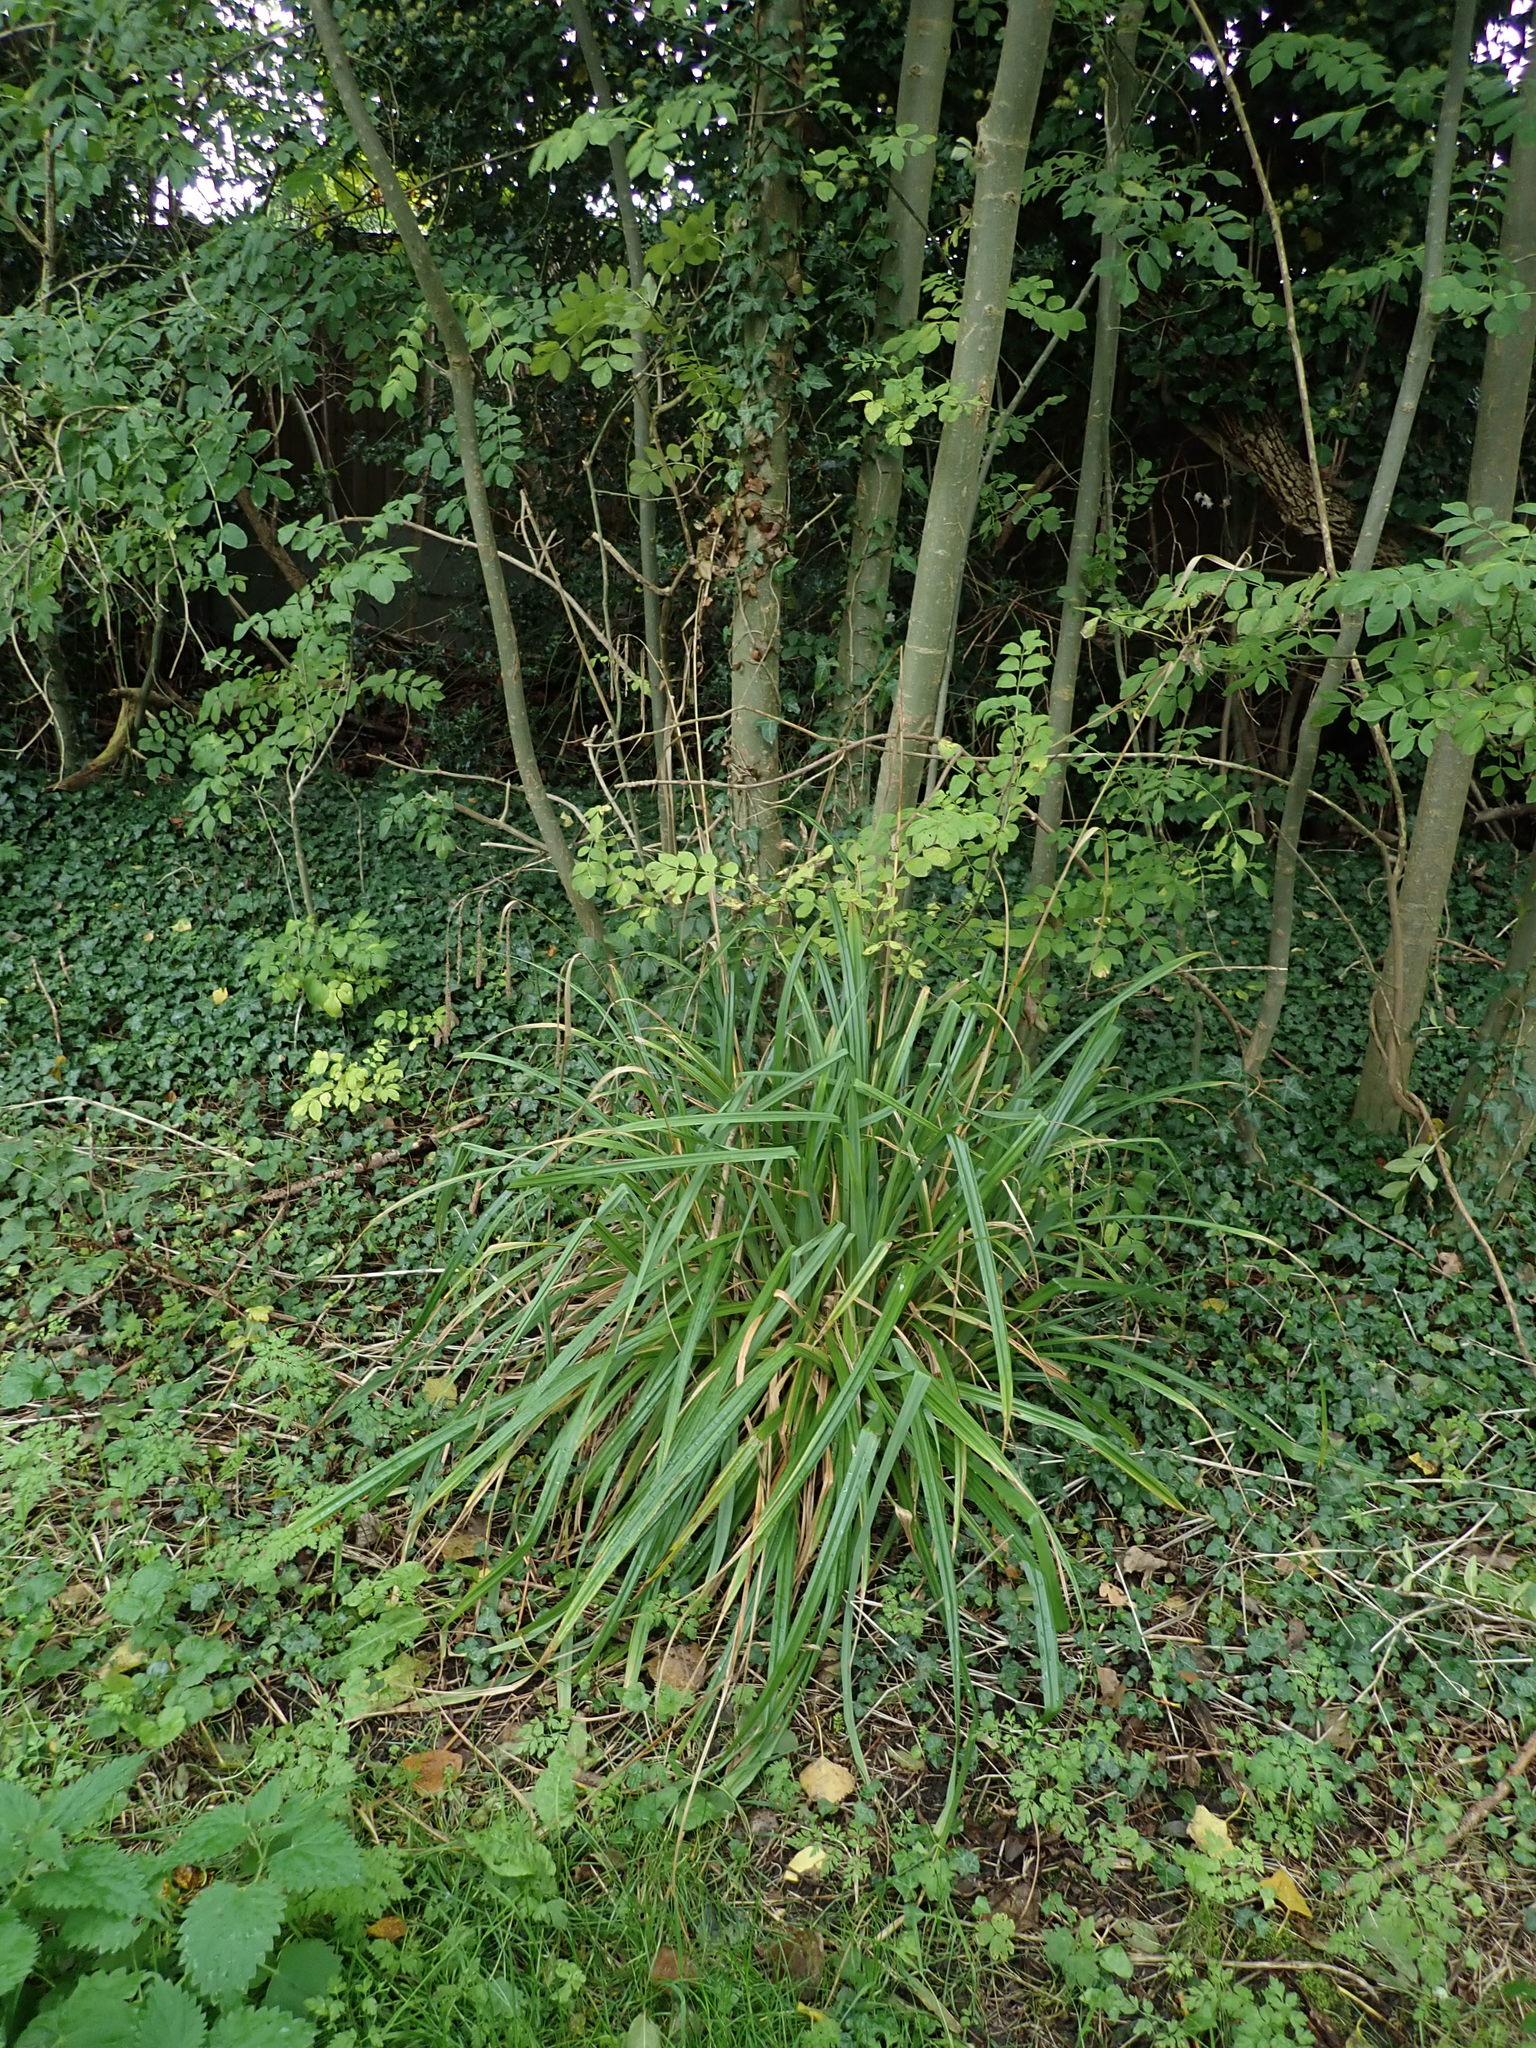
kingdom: Plantae
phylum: Tracheophyta
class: Liliopsida
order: Poales
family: Cyperaceae
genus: Carex
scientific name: Carex pendula
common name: Pendulous sedge
